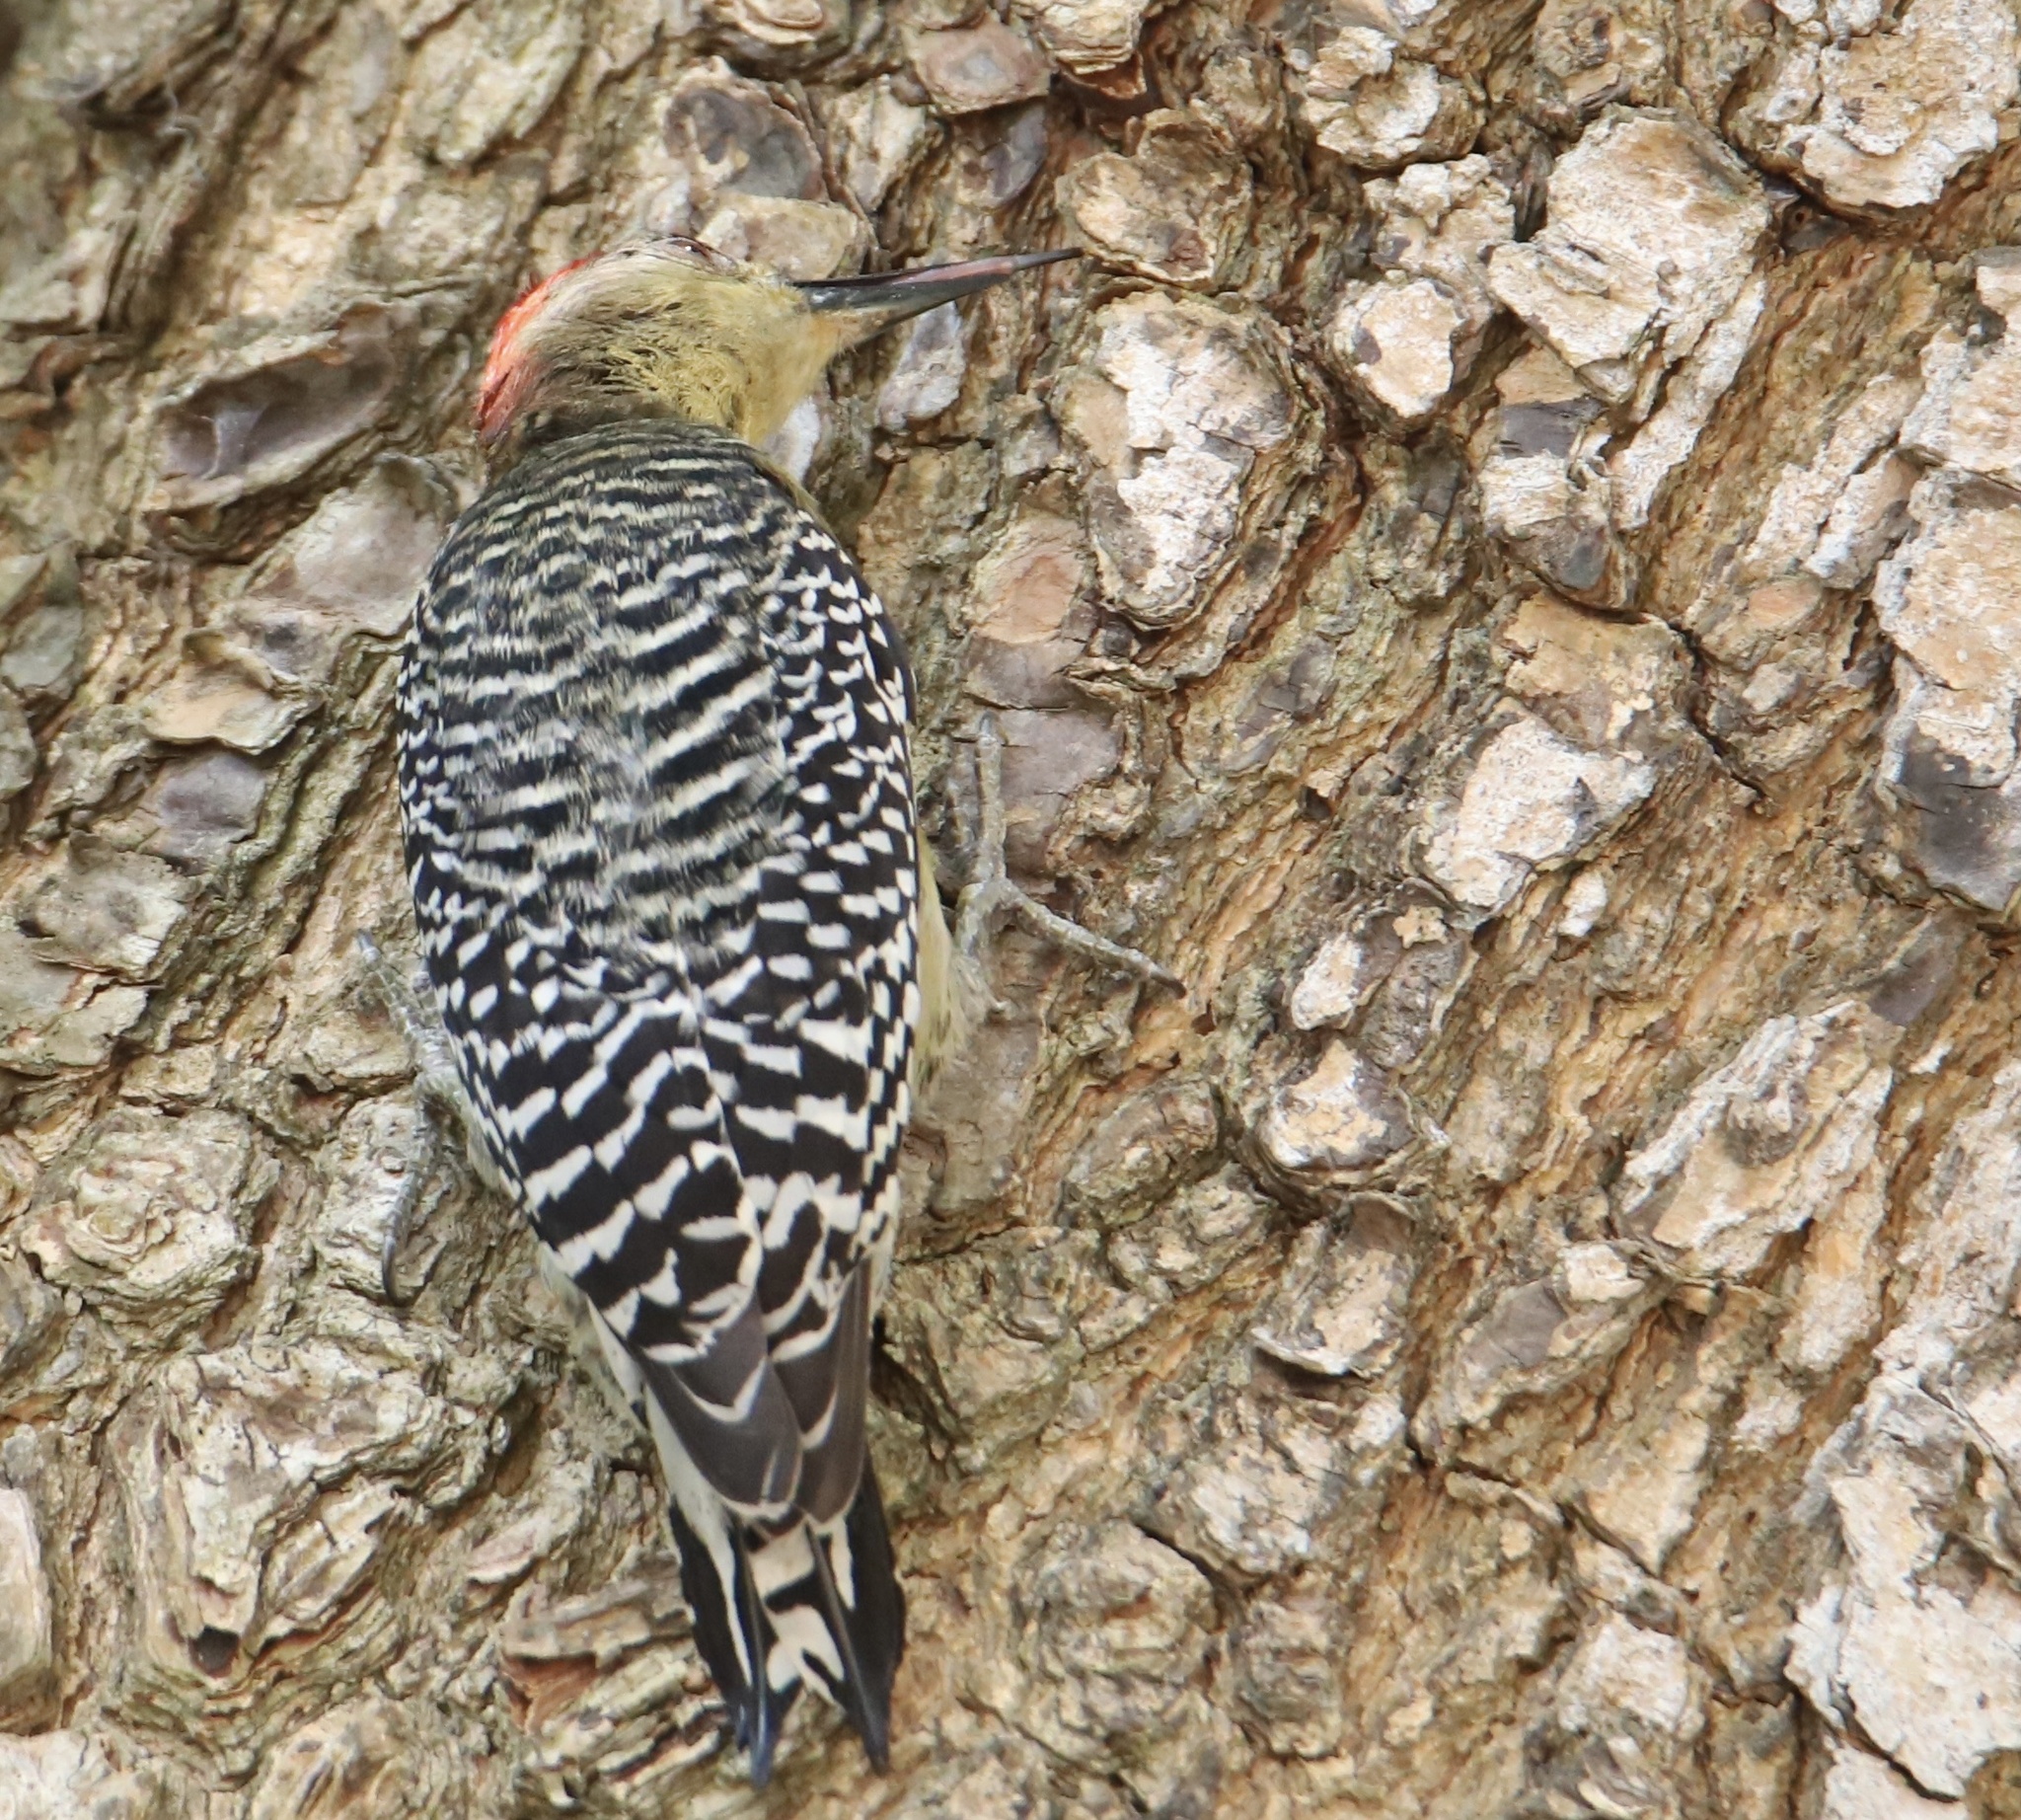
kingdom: Animalia
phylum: Chordata
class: Aves
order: Piciformes
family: Picidae
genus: Melanerpes
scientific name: Melanerpes rubricapillus
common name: Red-crowned woodpecker
